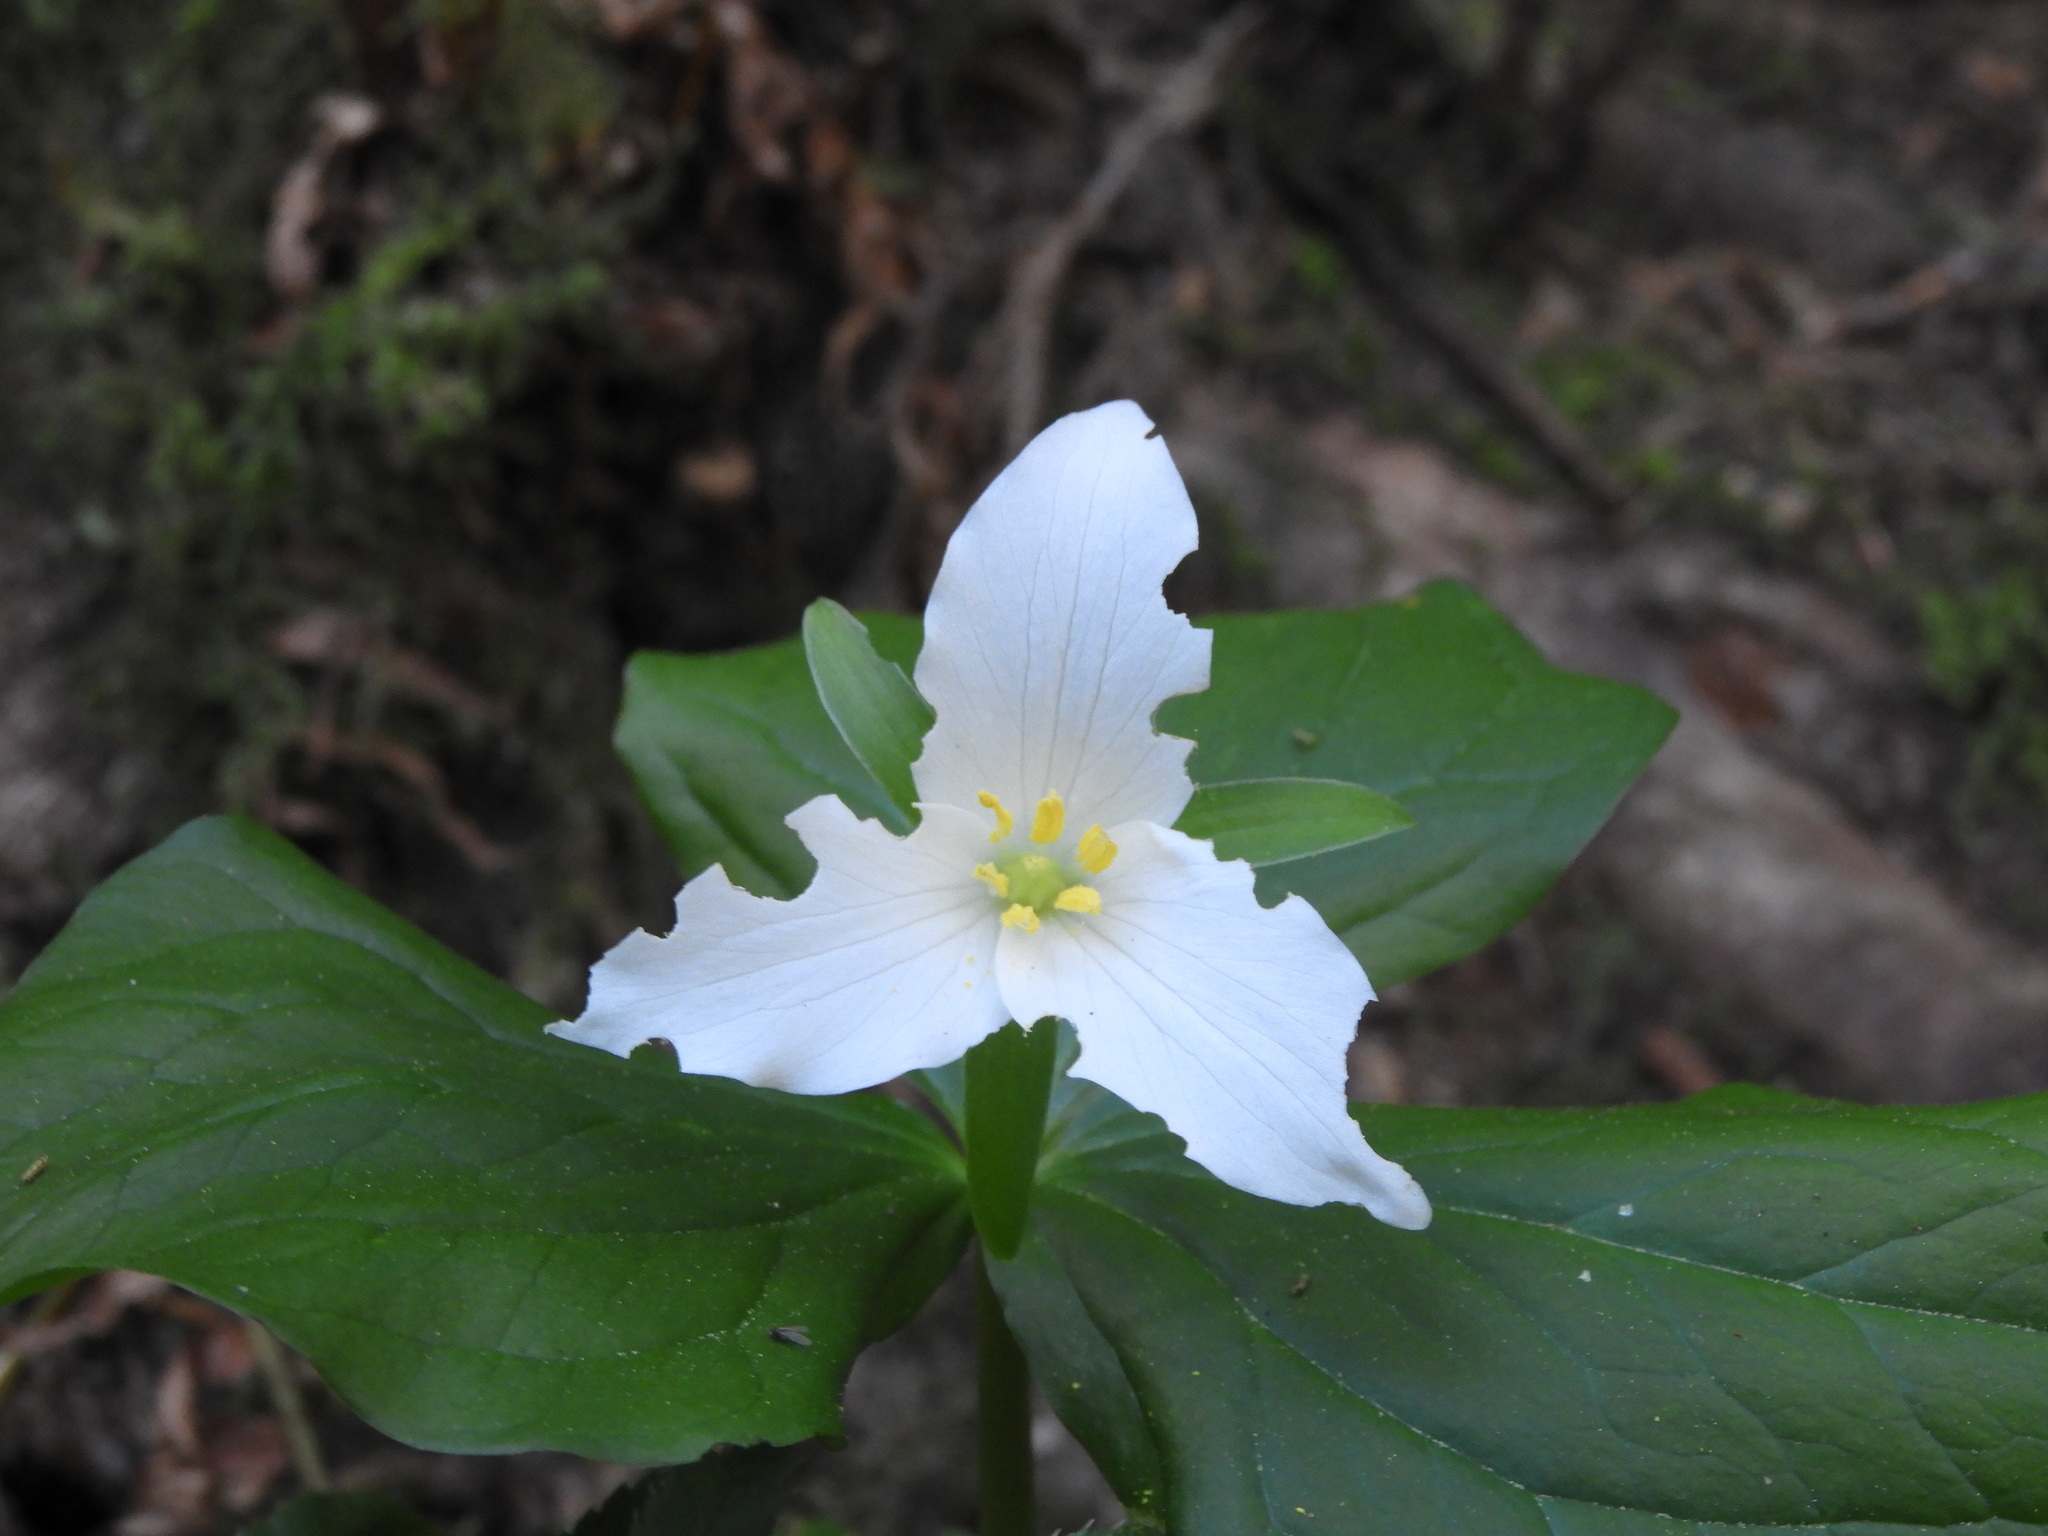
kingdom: Plantae
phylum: Tracheophyta
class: Liliopsida
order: Liliales
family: Melanthiaceae
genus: Trillium
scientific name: Trillium ovatum
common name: Pacific trillium
